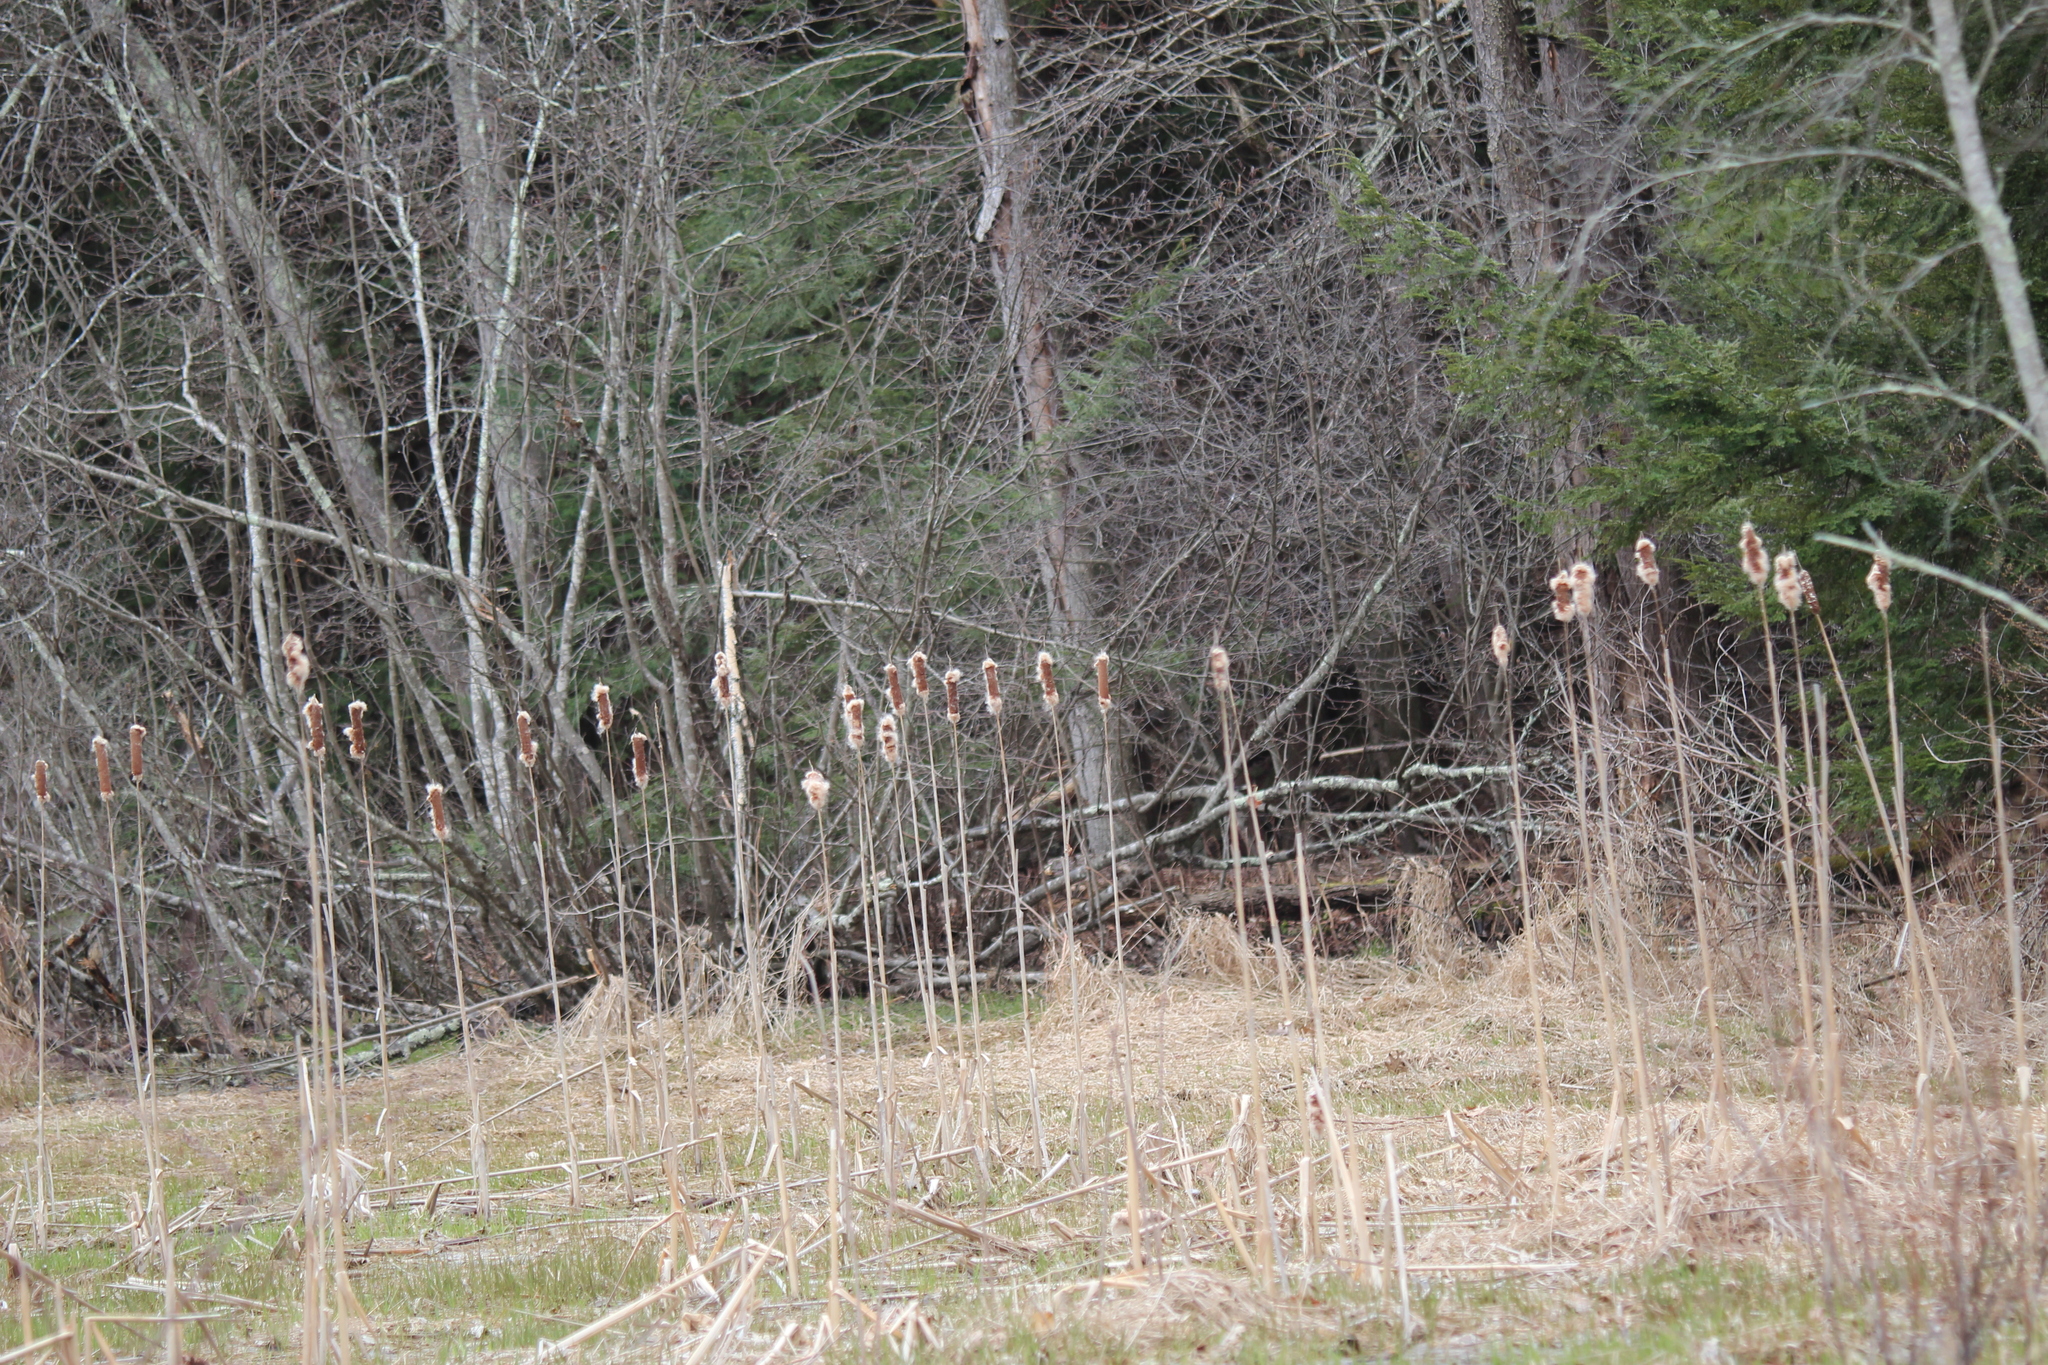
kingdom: Plantae
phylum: Tracheophyta
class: Liliopsida
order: Poales
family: Typhaceae
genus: Typha
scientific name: Typha
